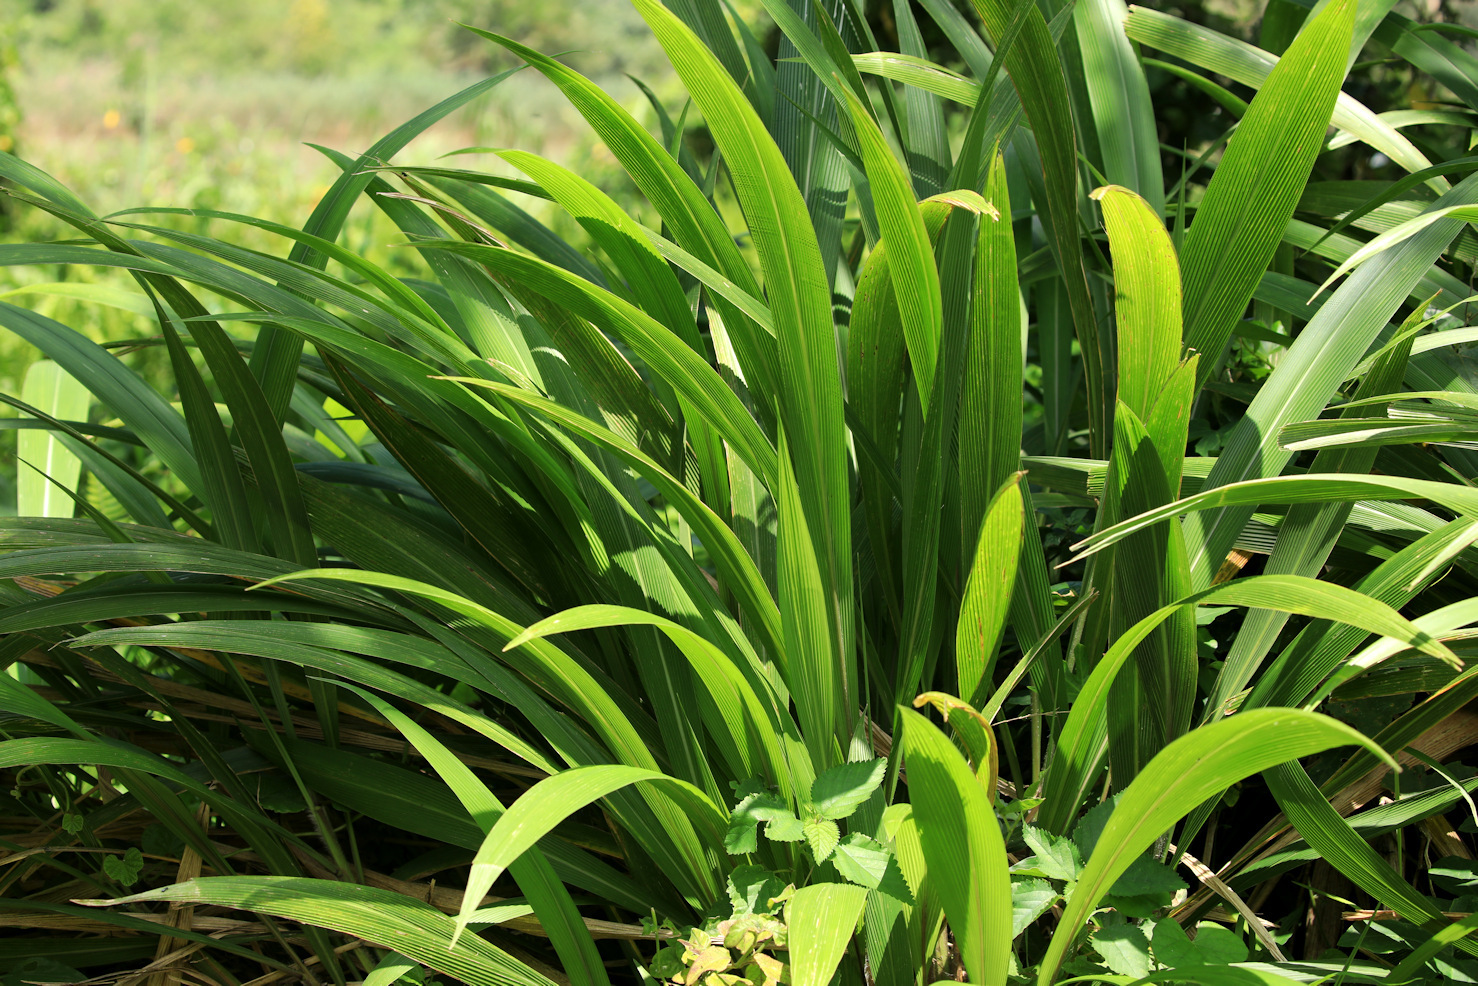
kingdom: Plantae
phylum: Tracheophyta
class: Liliopsida
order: Poales
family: Poaceae
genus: Setaria
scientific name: Setaria megaphylla
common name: Bigleaf bristlegrass
